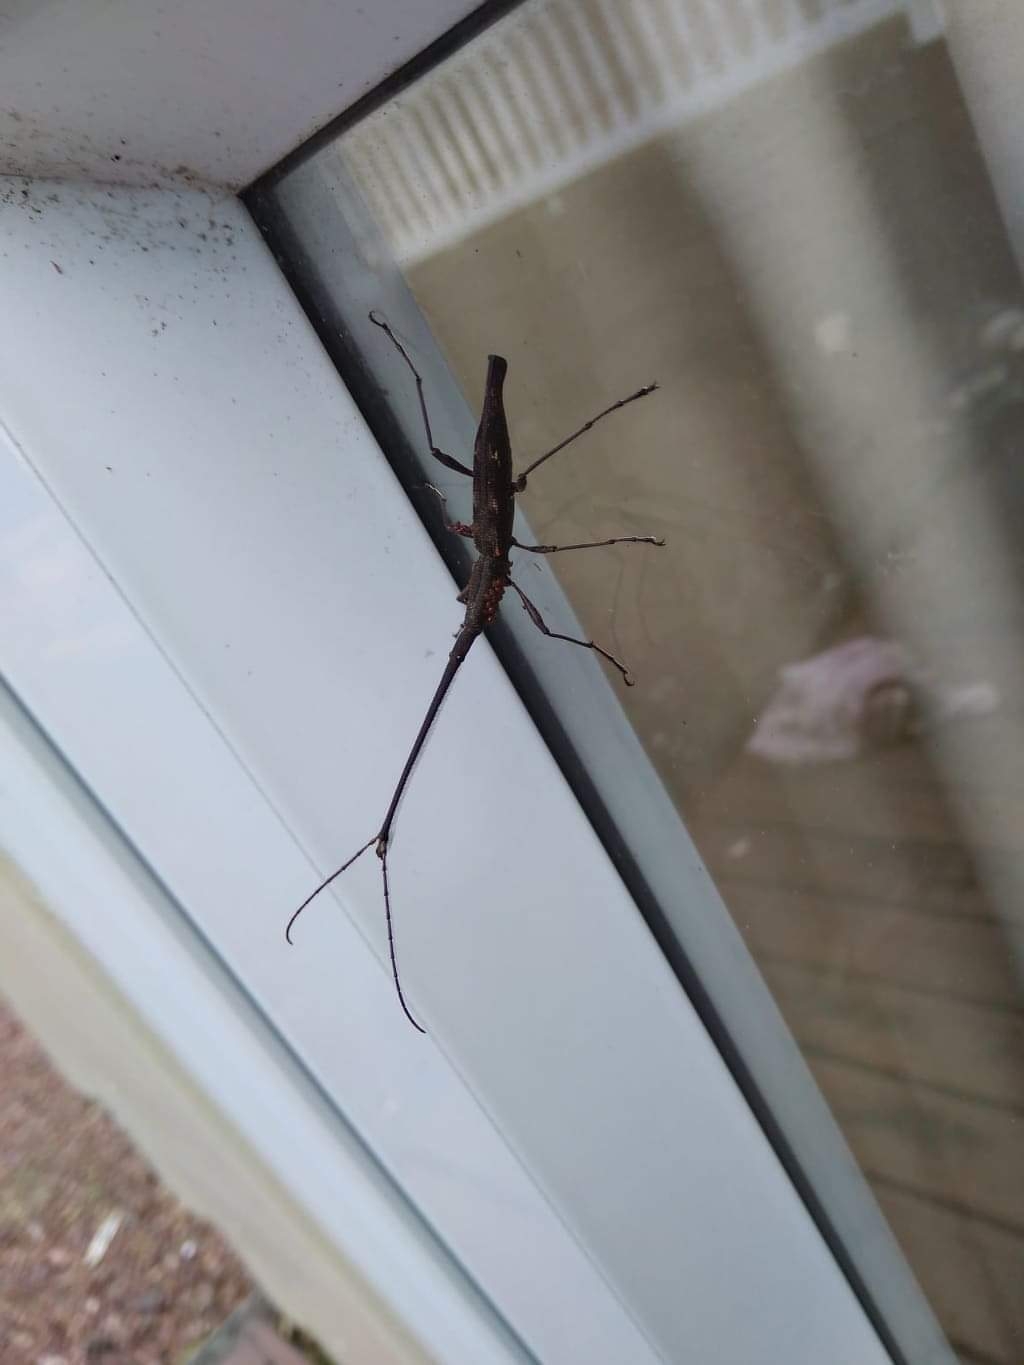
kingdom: Animalia
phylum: Arthropoda
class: Insecta
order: Coleoptera
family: Brentidae
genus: Lasiorhynchus
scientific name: Lasiorhynchus barbicornis
